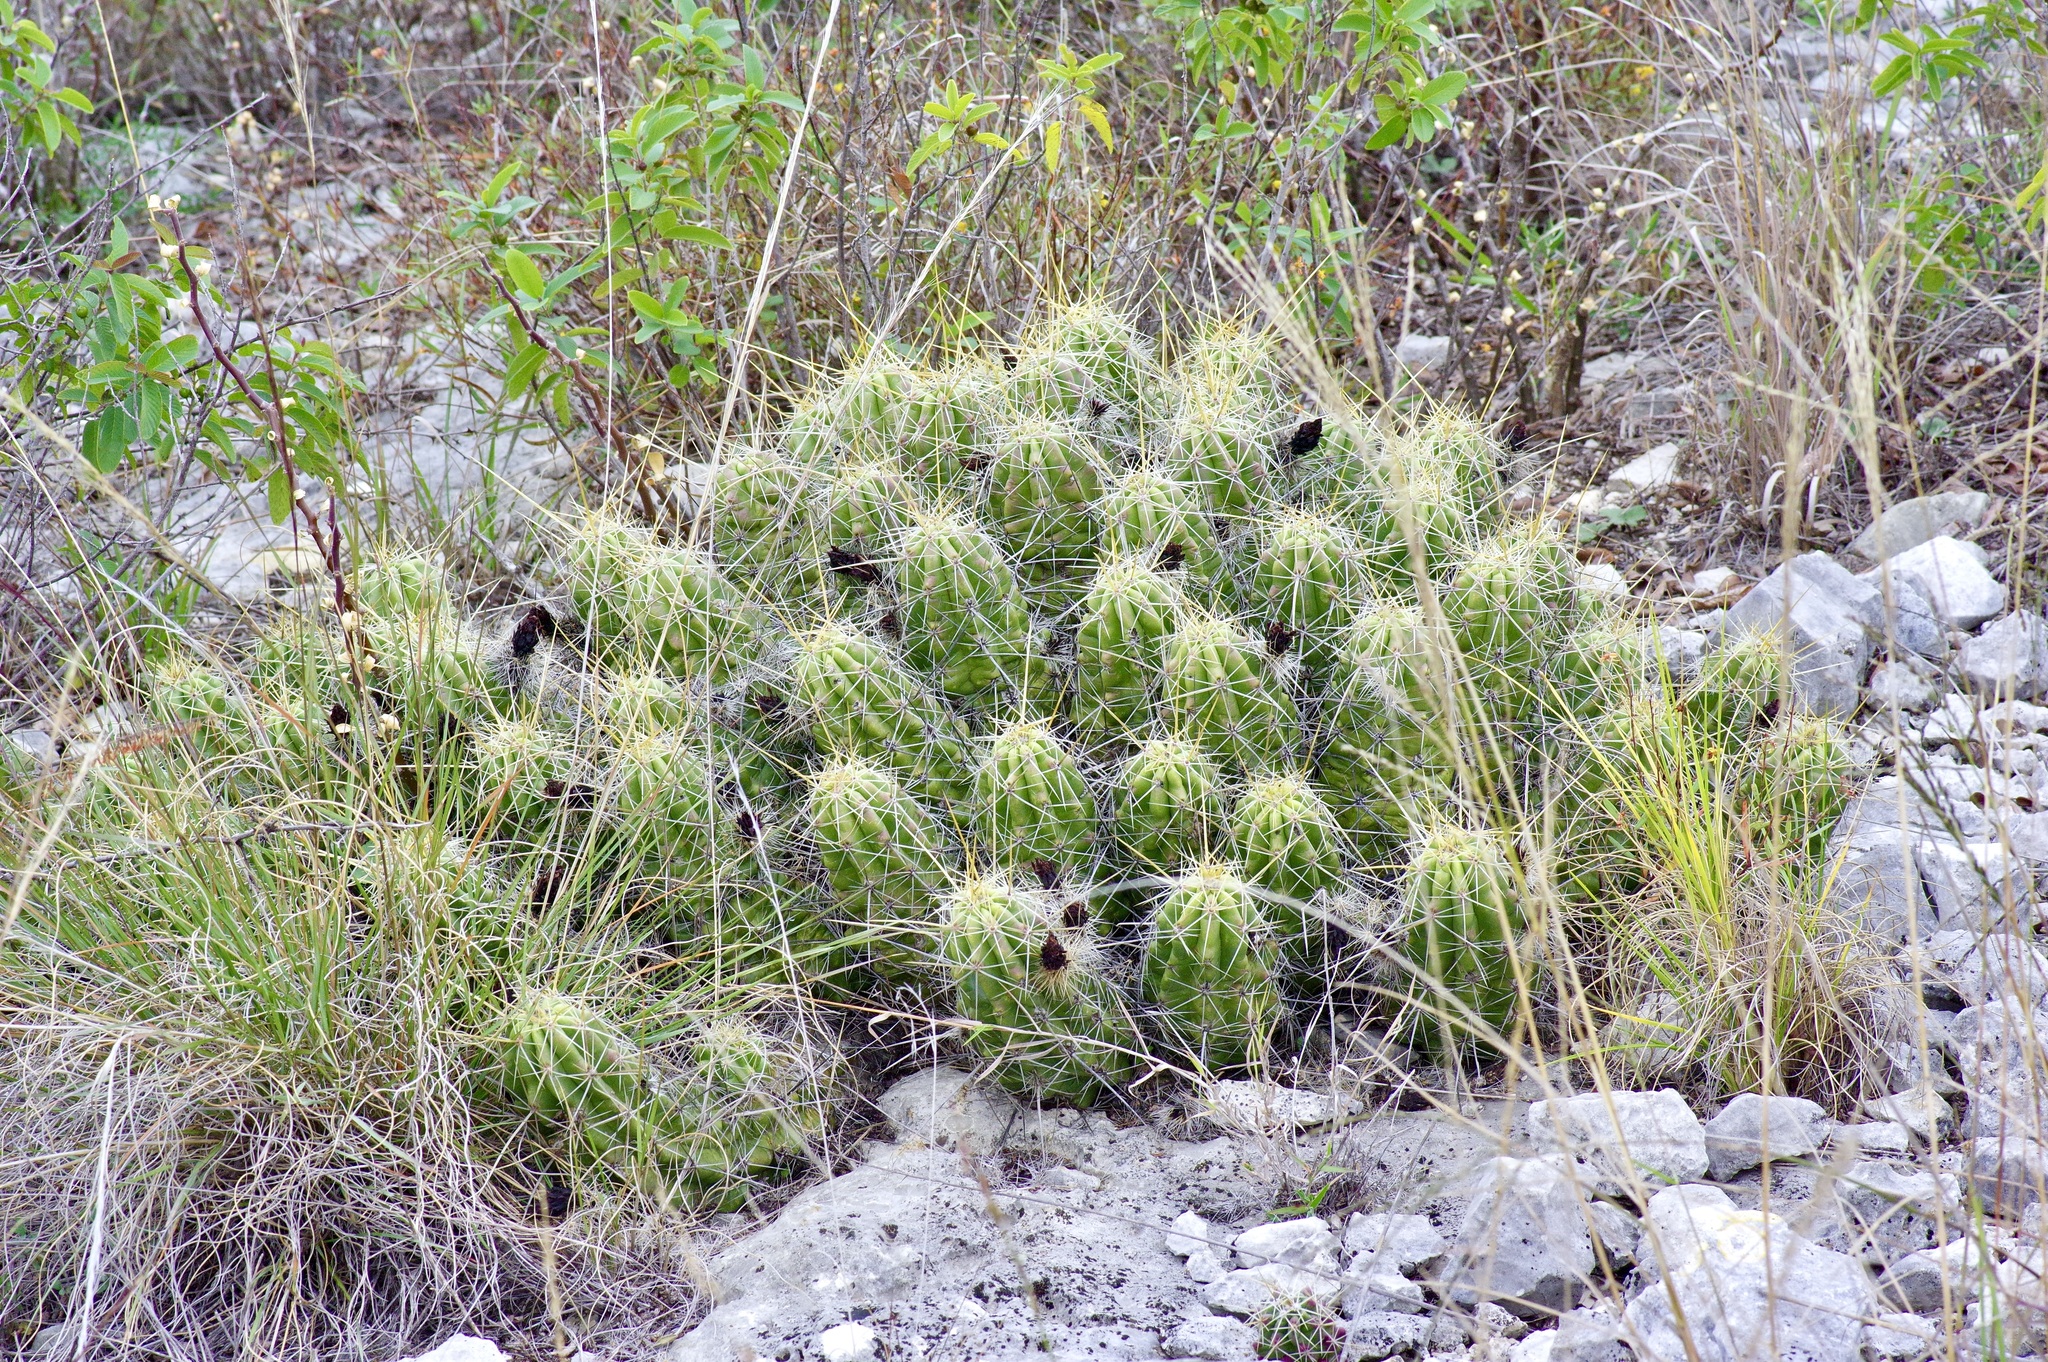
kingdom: Plantae
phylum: Tracheophyta
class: Magnoliopsida
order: Caryophyllales
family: Cactaceae
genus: Echinocereus
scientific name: Echinocereus enneacanthus
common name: Pitaya
